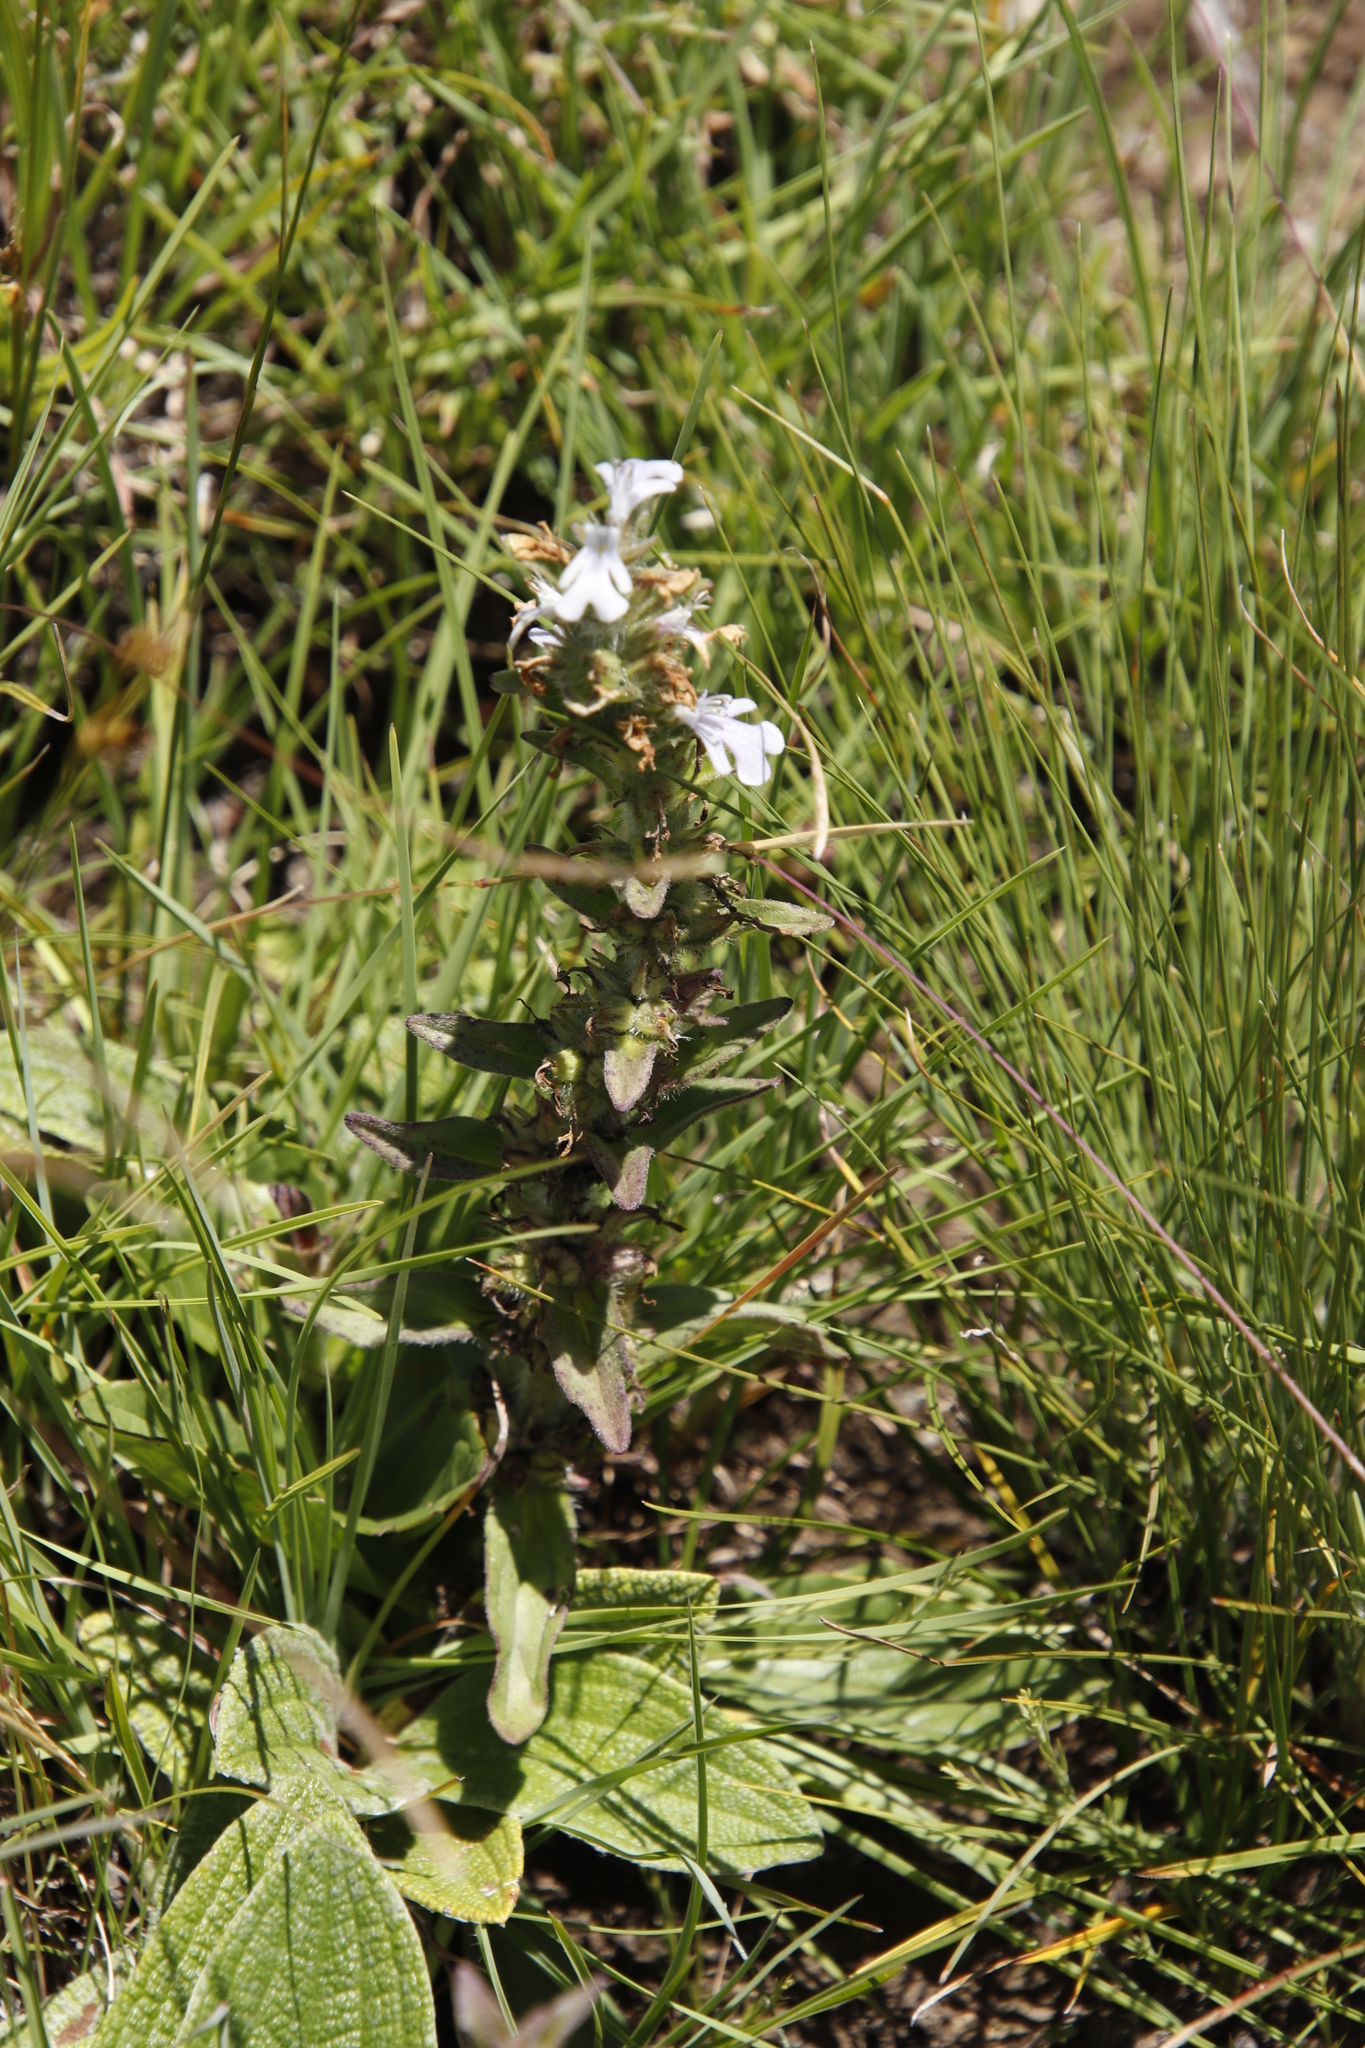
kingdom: Plantae
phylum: Tracheophyta
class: Magnoliopsida
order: Lamiales
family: Lamiaceae
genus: Ajuga
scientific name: Ajuga ophrydis
